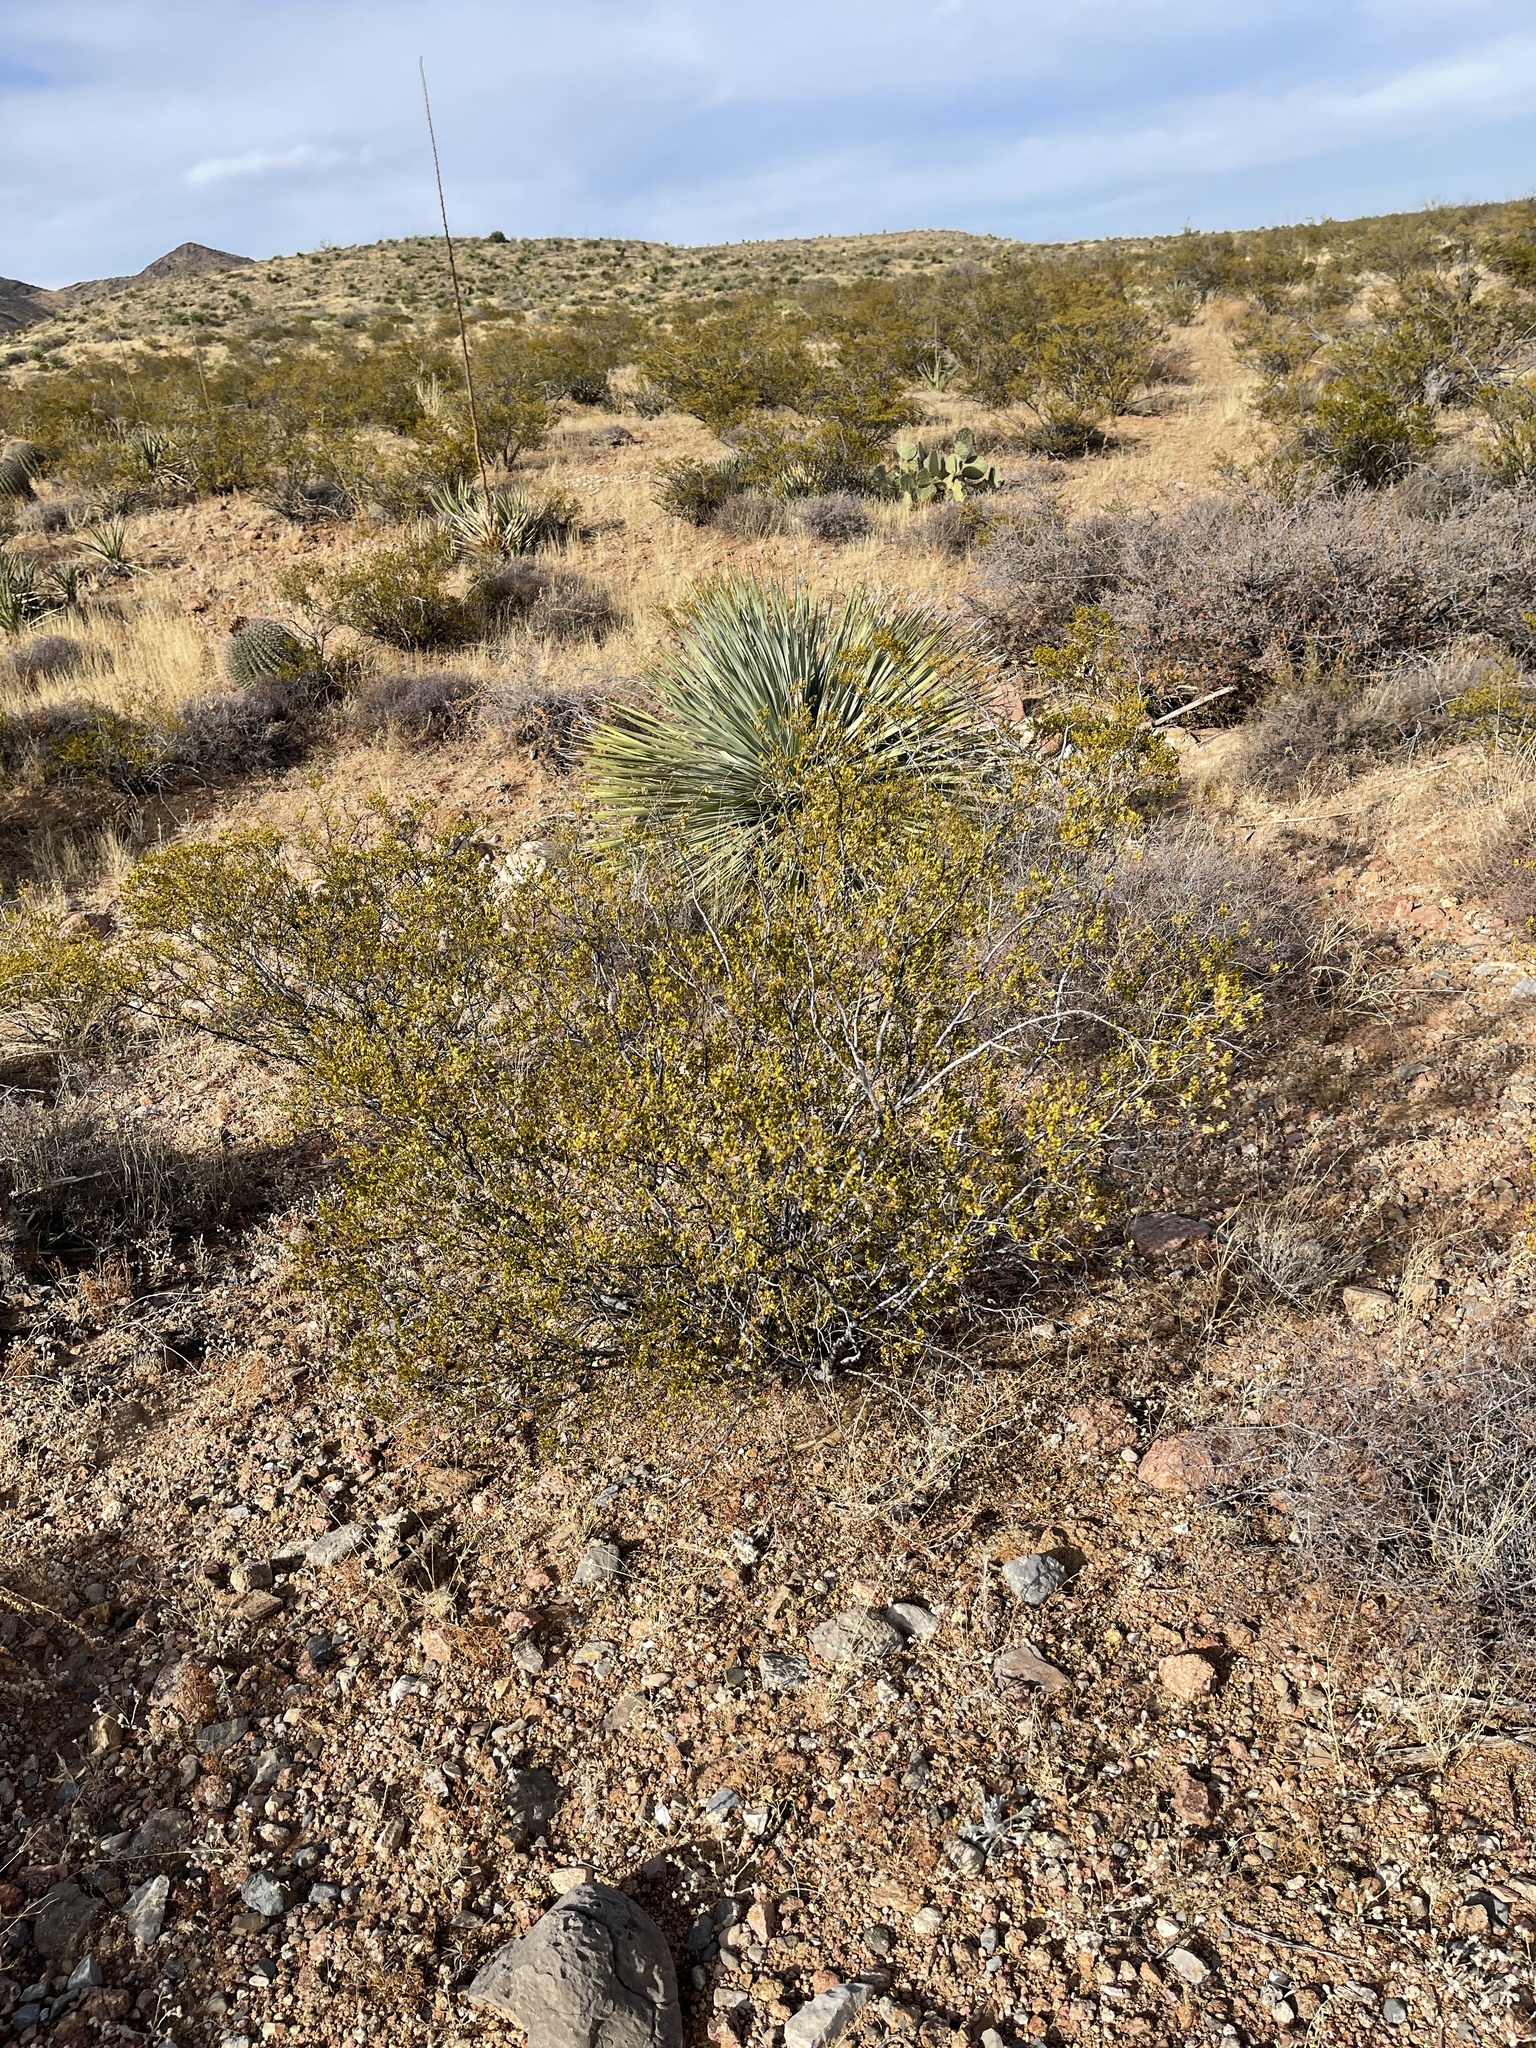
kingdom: Plantae
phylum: Tracheophyta
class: Magnoliopsida
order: Zygophyllales
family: Zygophyllaceae
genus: Larrea
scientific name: Larrea tridentata
